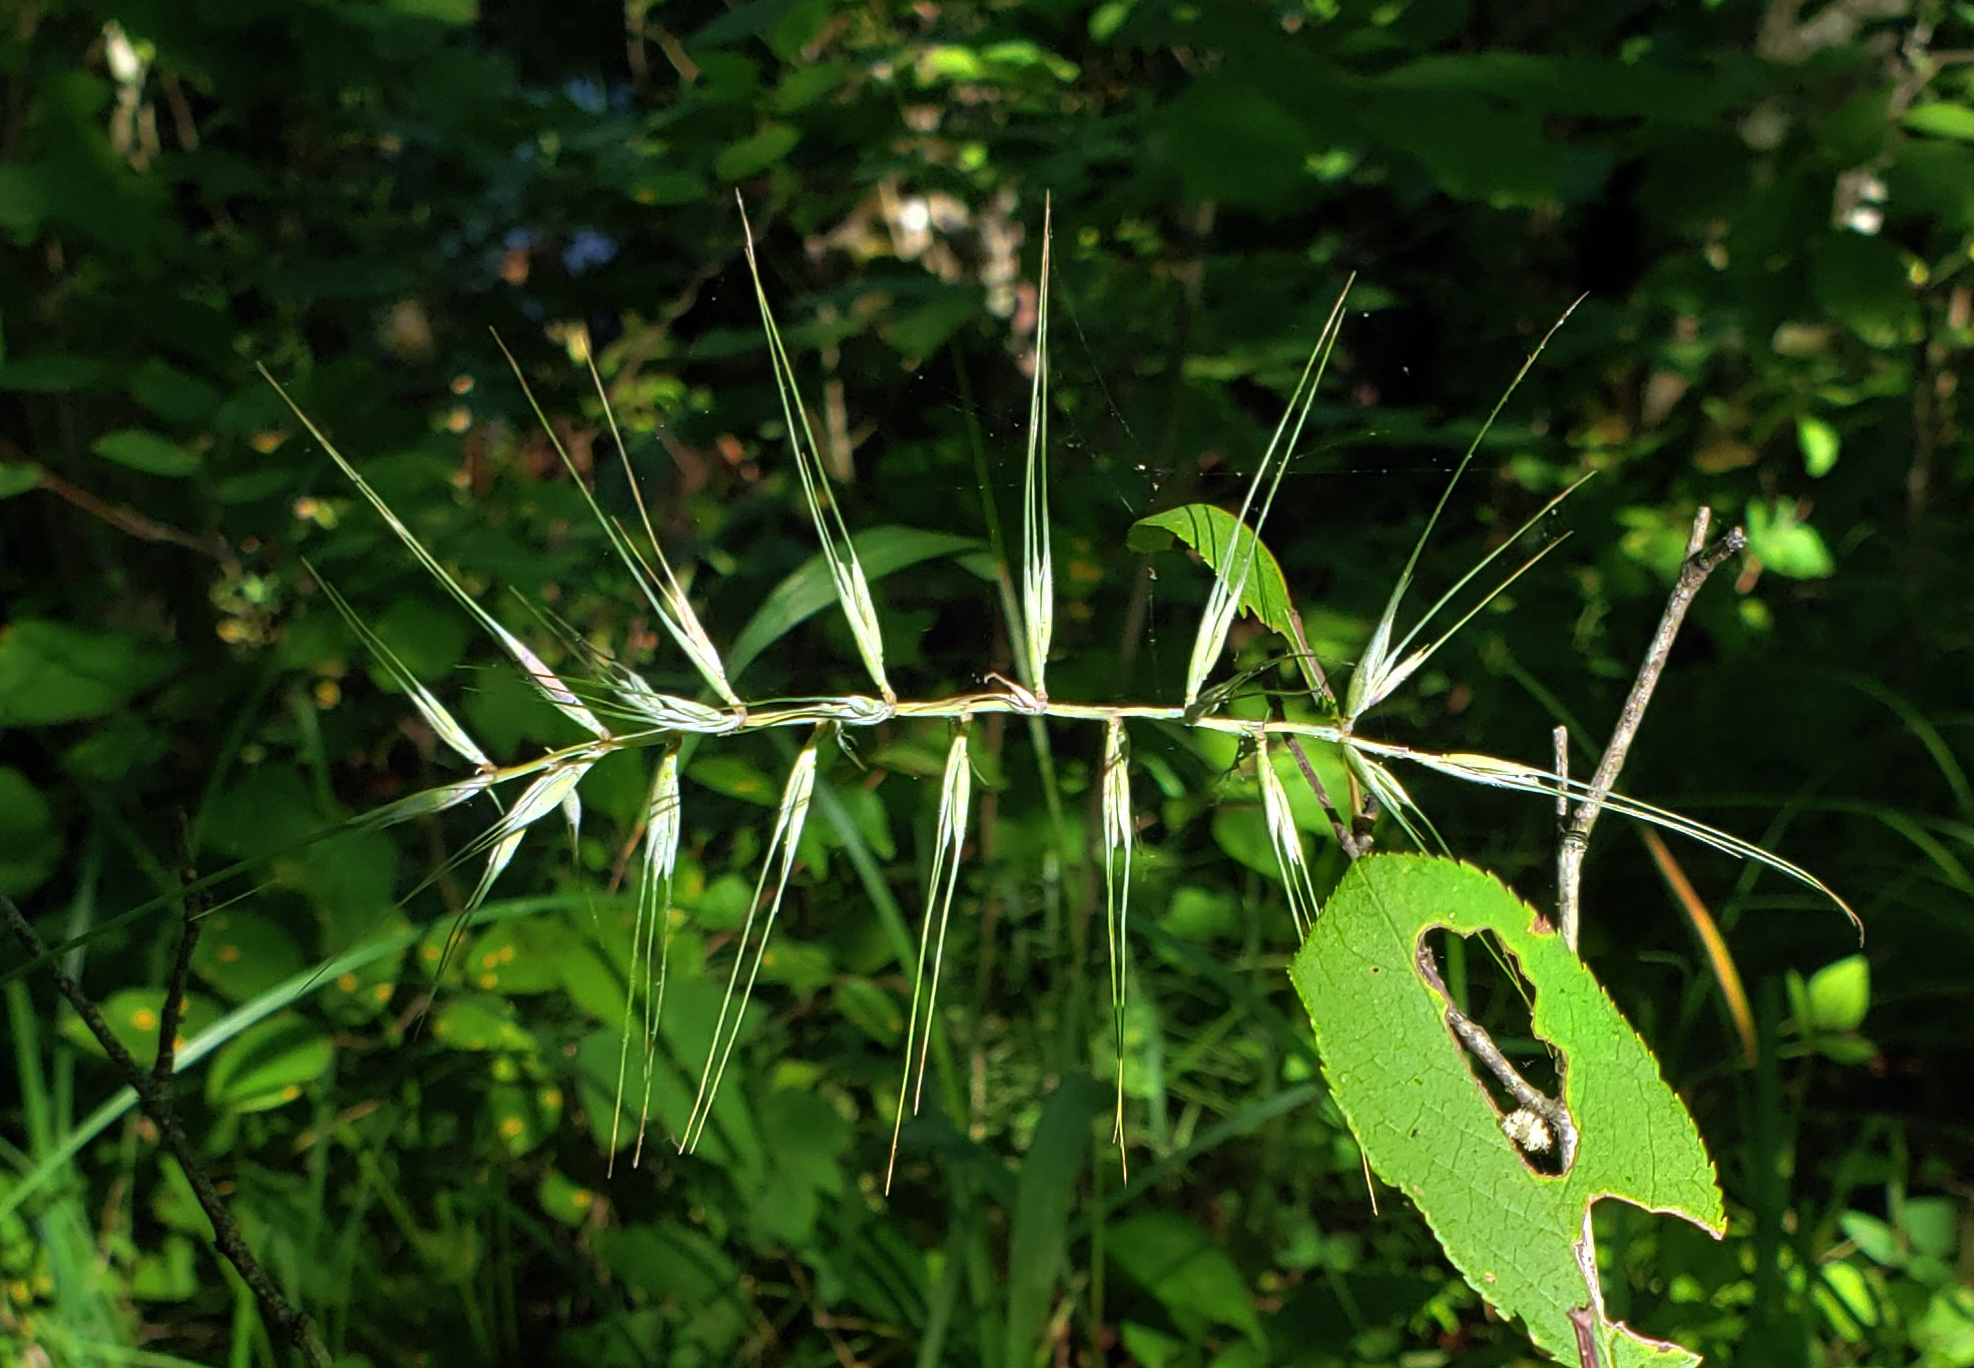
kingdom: Plantae
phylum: Tracheophyta
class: Liliopsida
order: Poales
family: Poaceae
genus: Elymus
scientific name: Elymus hystrix
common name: Bottlebrush grass
